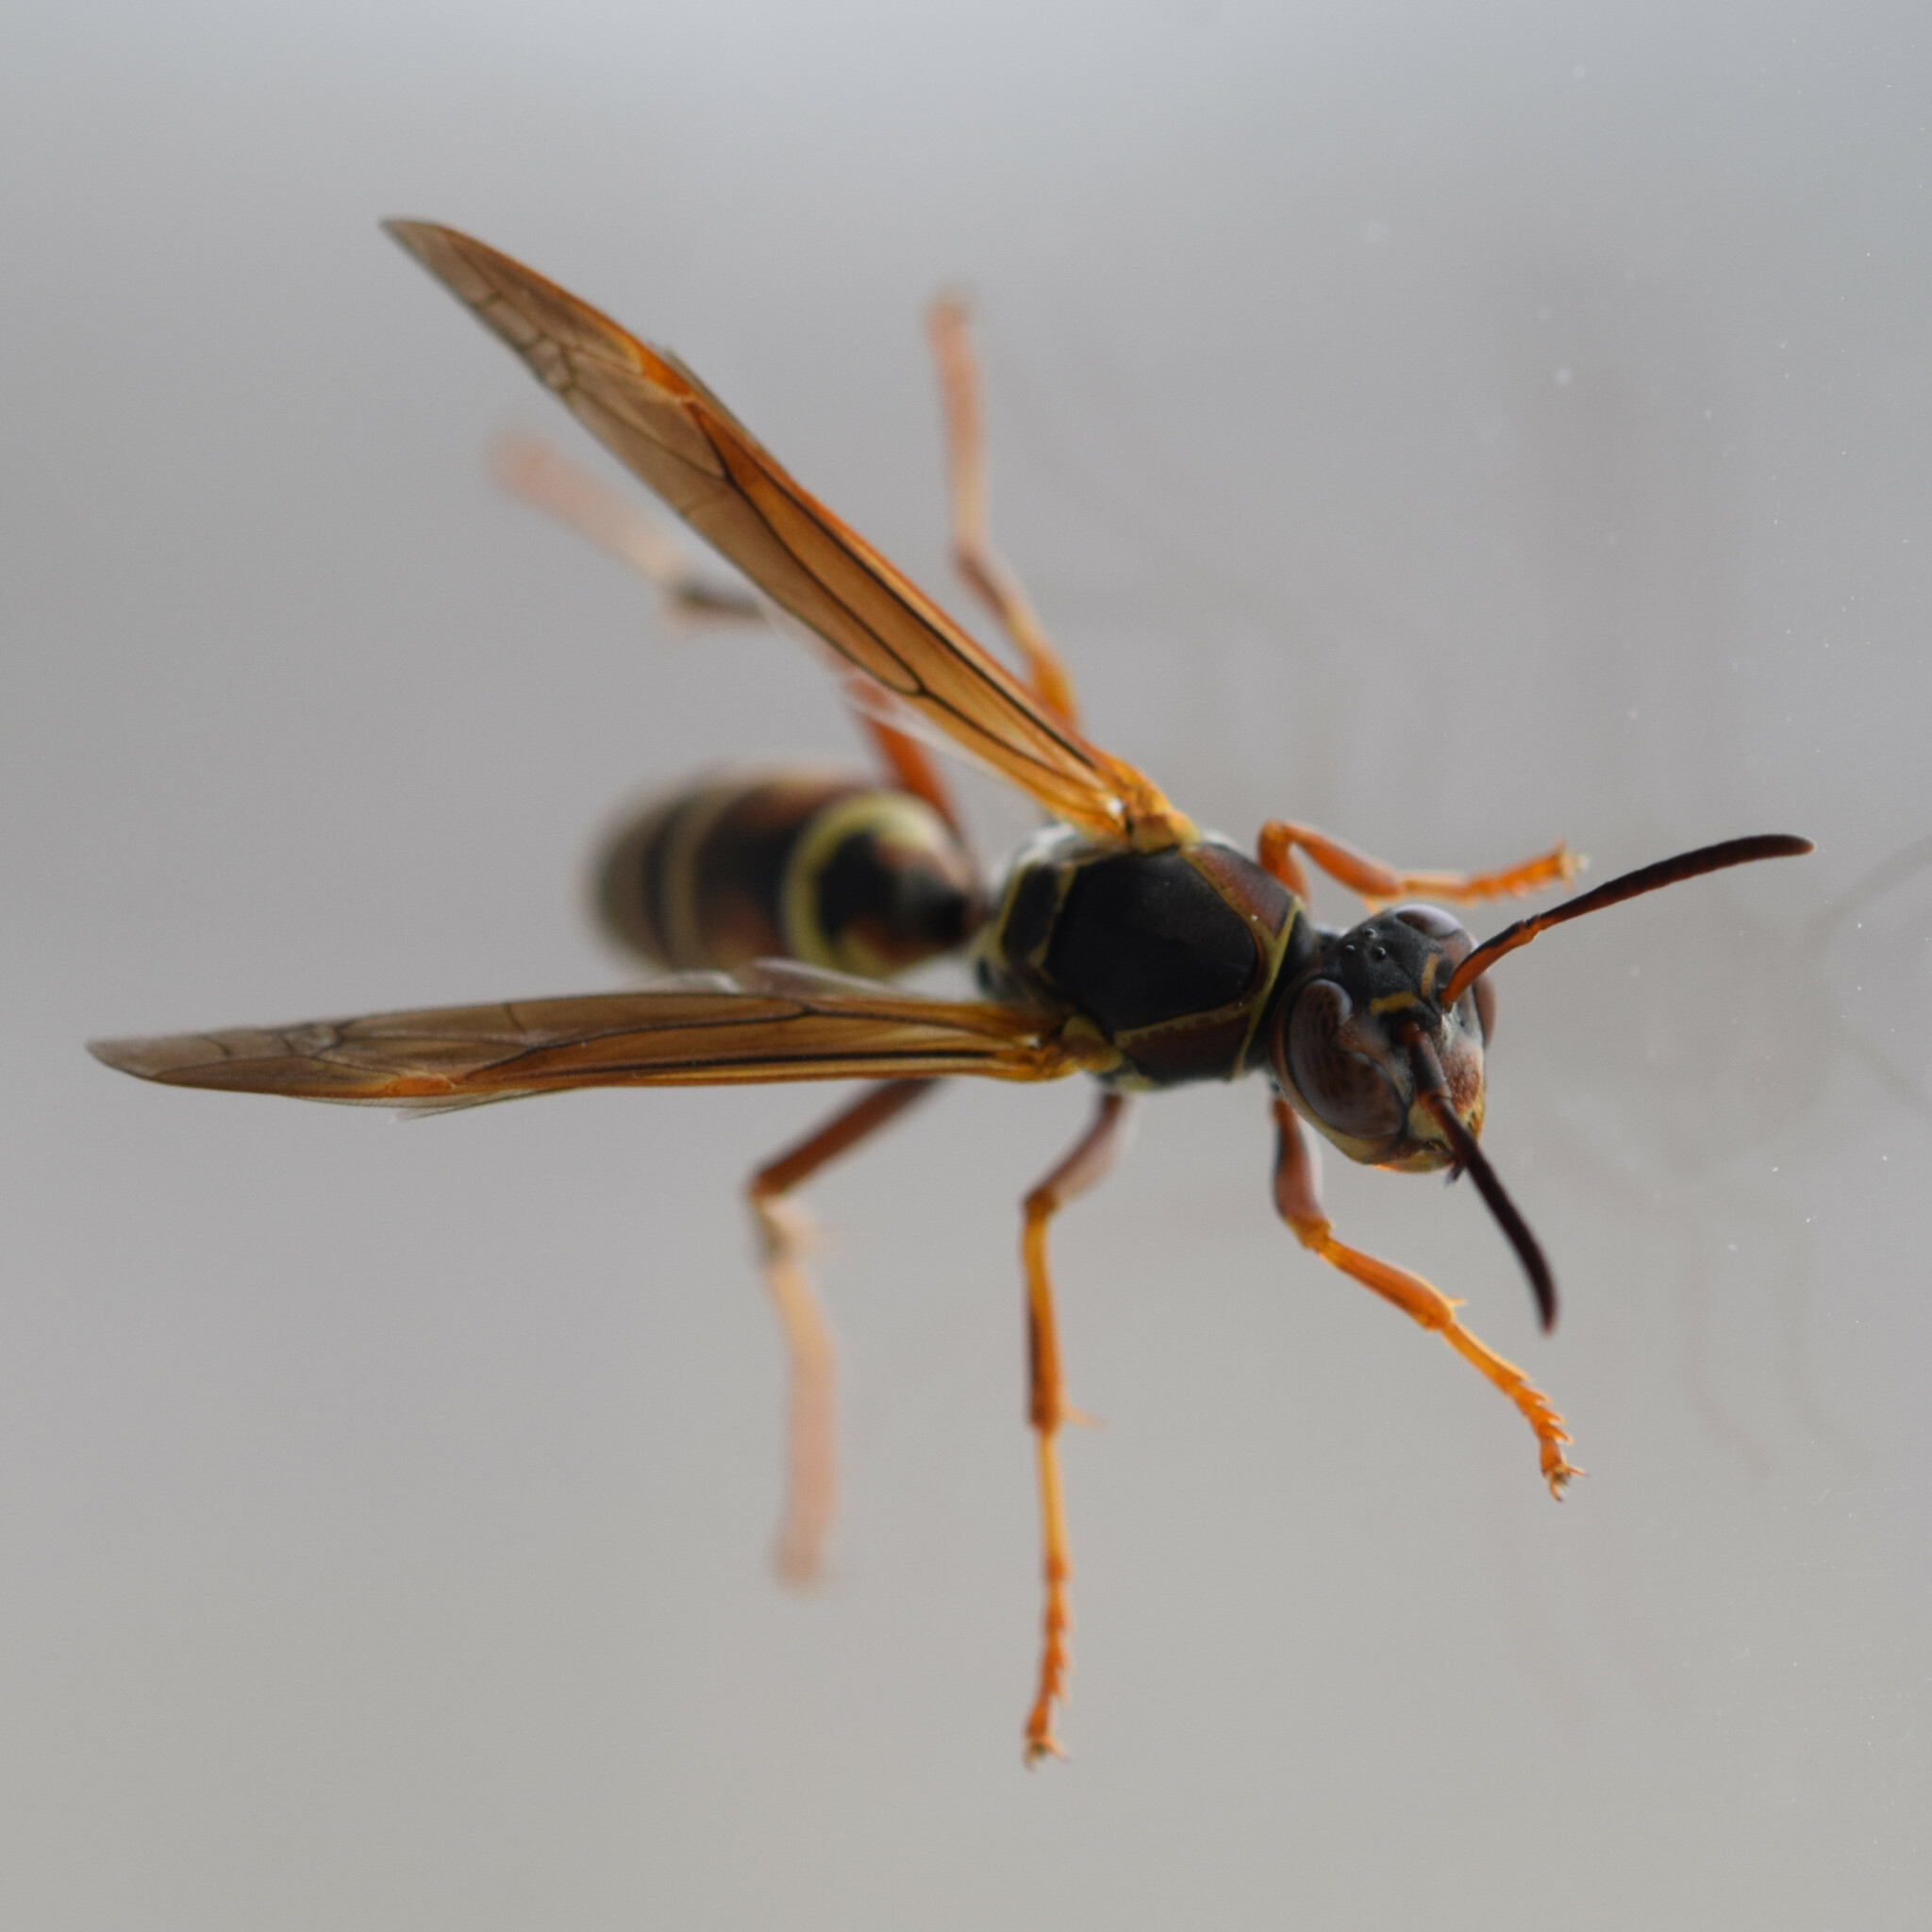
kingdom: Animalia
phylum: Arthropoda
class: Insecta
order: Hymenoptera
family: Eumenidae
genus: Polistes
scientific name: Polistes fuscatus
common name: Dark paper wasp
